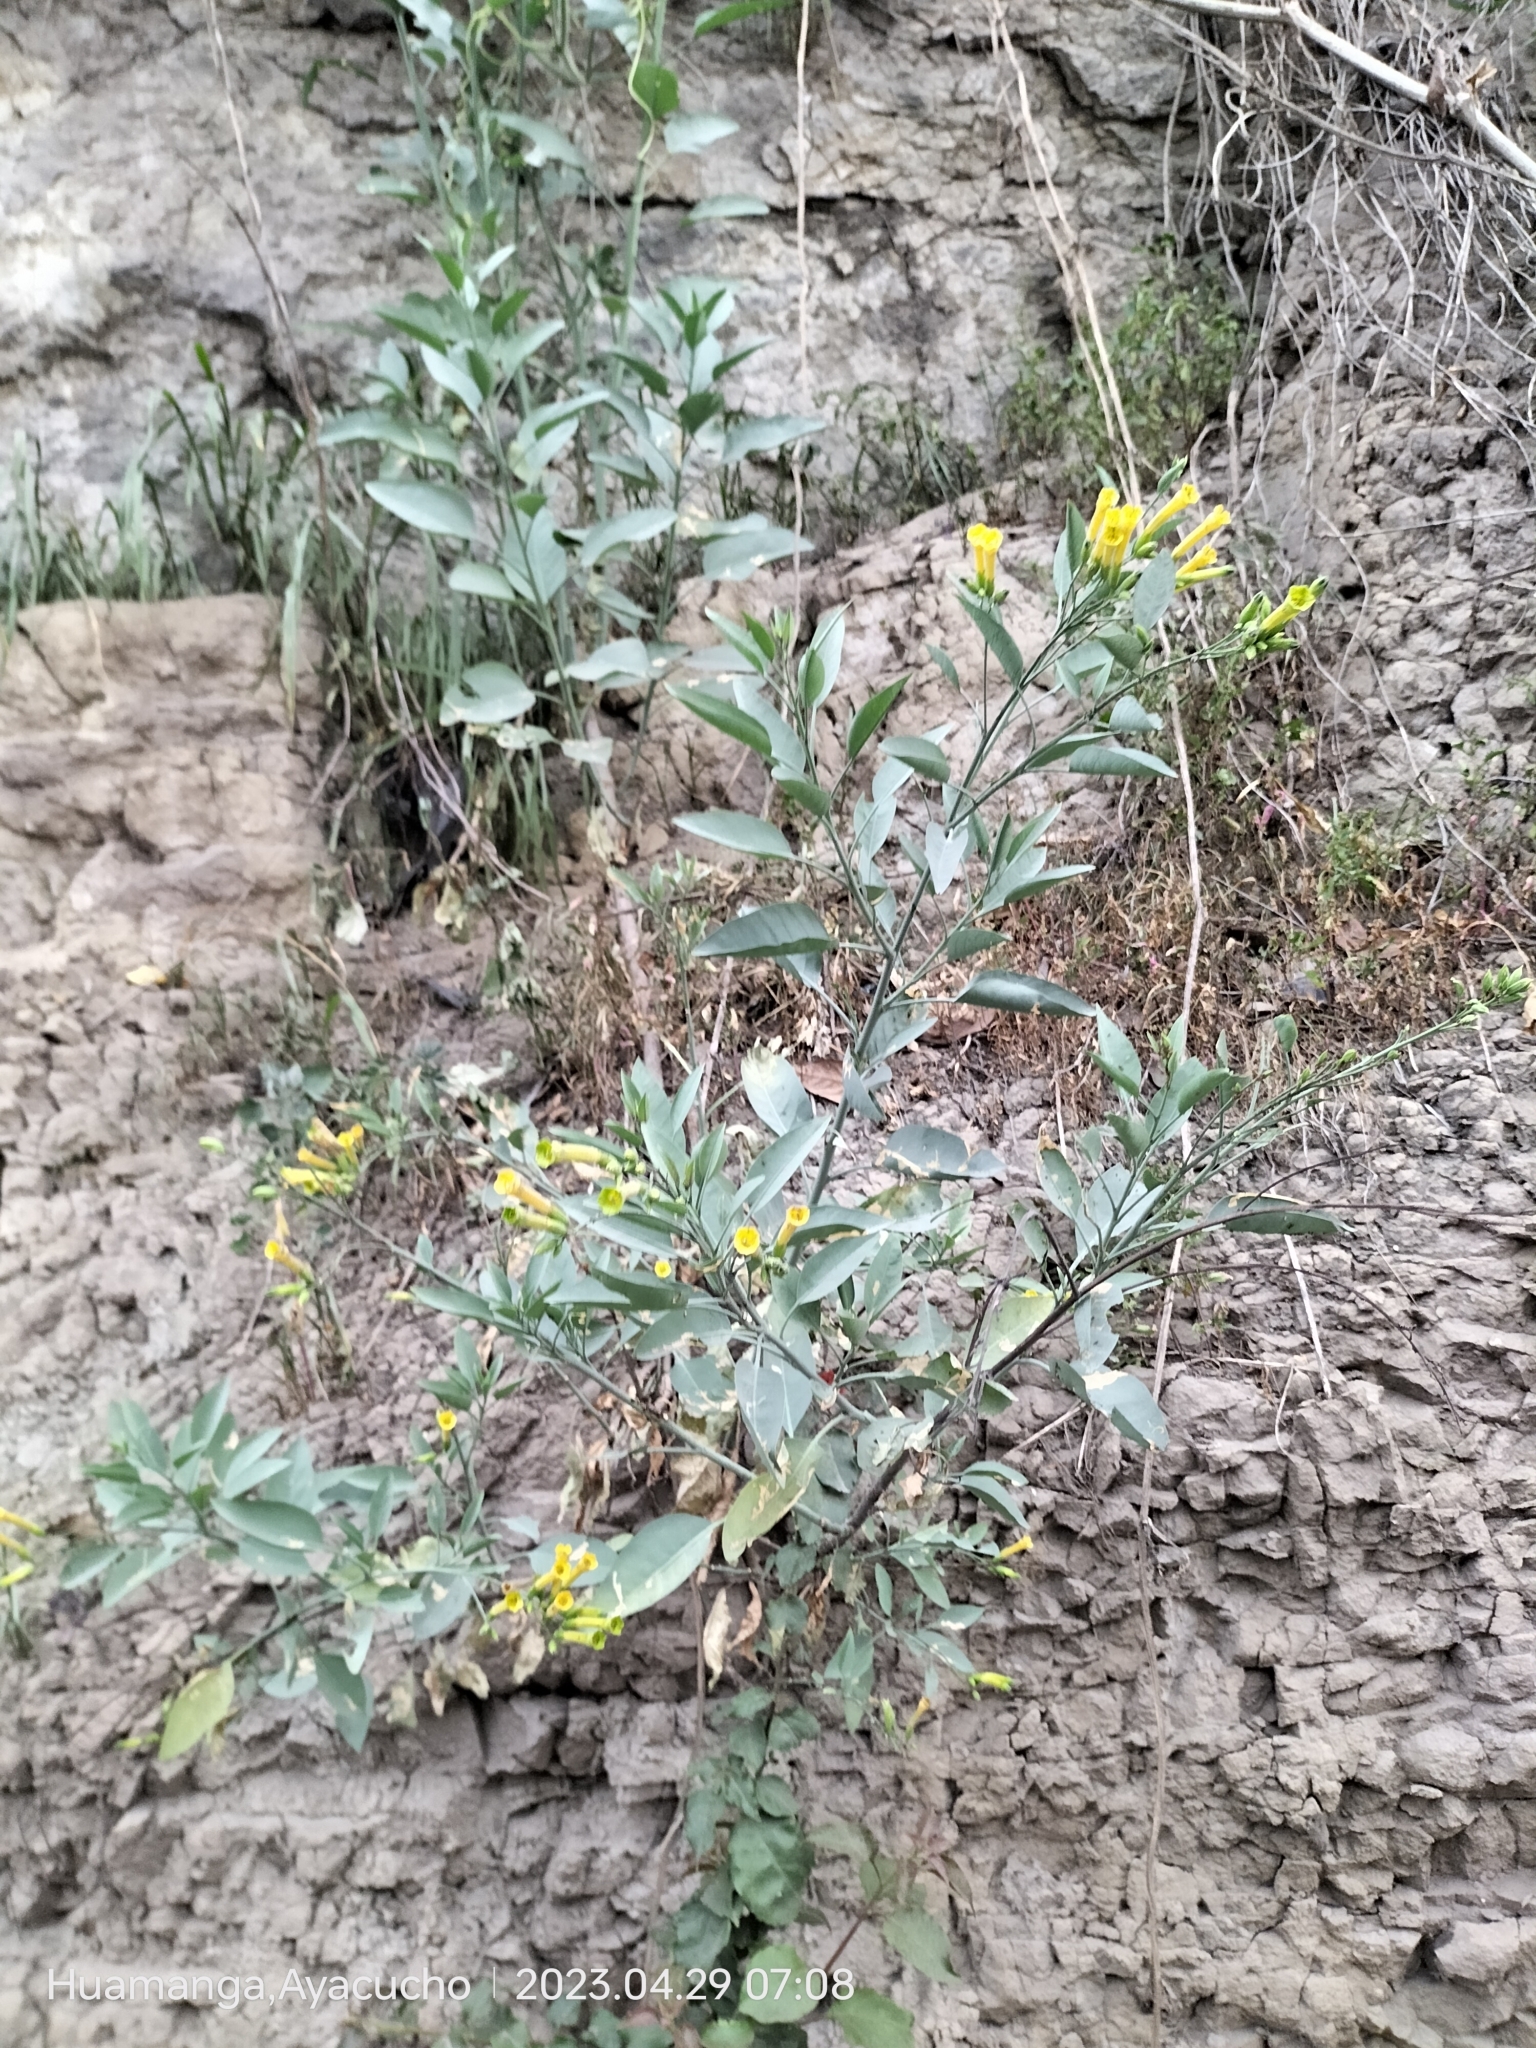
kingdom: Plantae
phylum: Tracheophyta
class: Magnoliopsida
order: Solanales
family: Solanaceae
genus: Nicotiana
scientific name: Nicotiana glauca
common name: Tree tobacco
